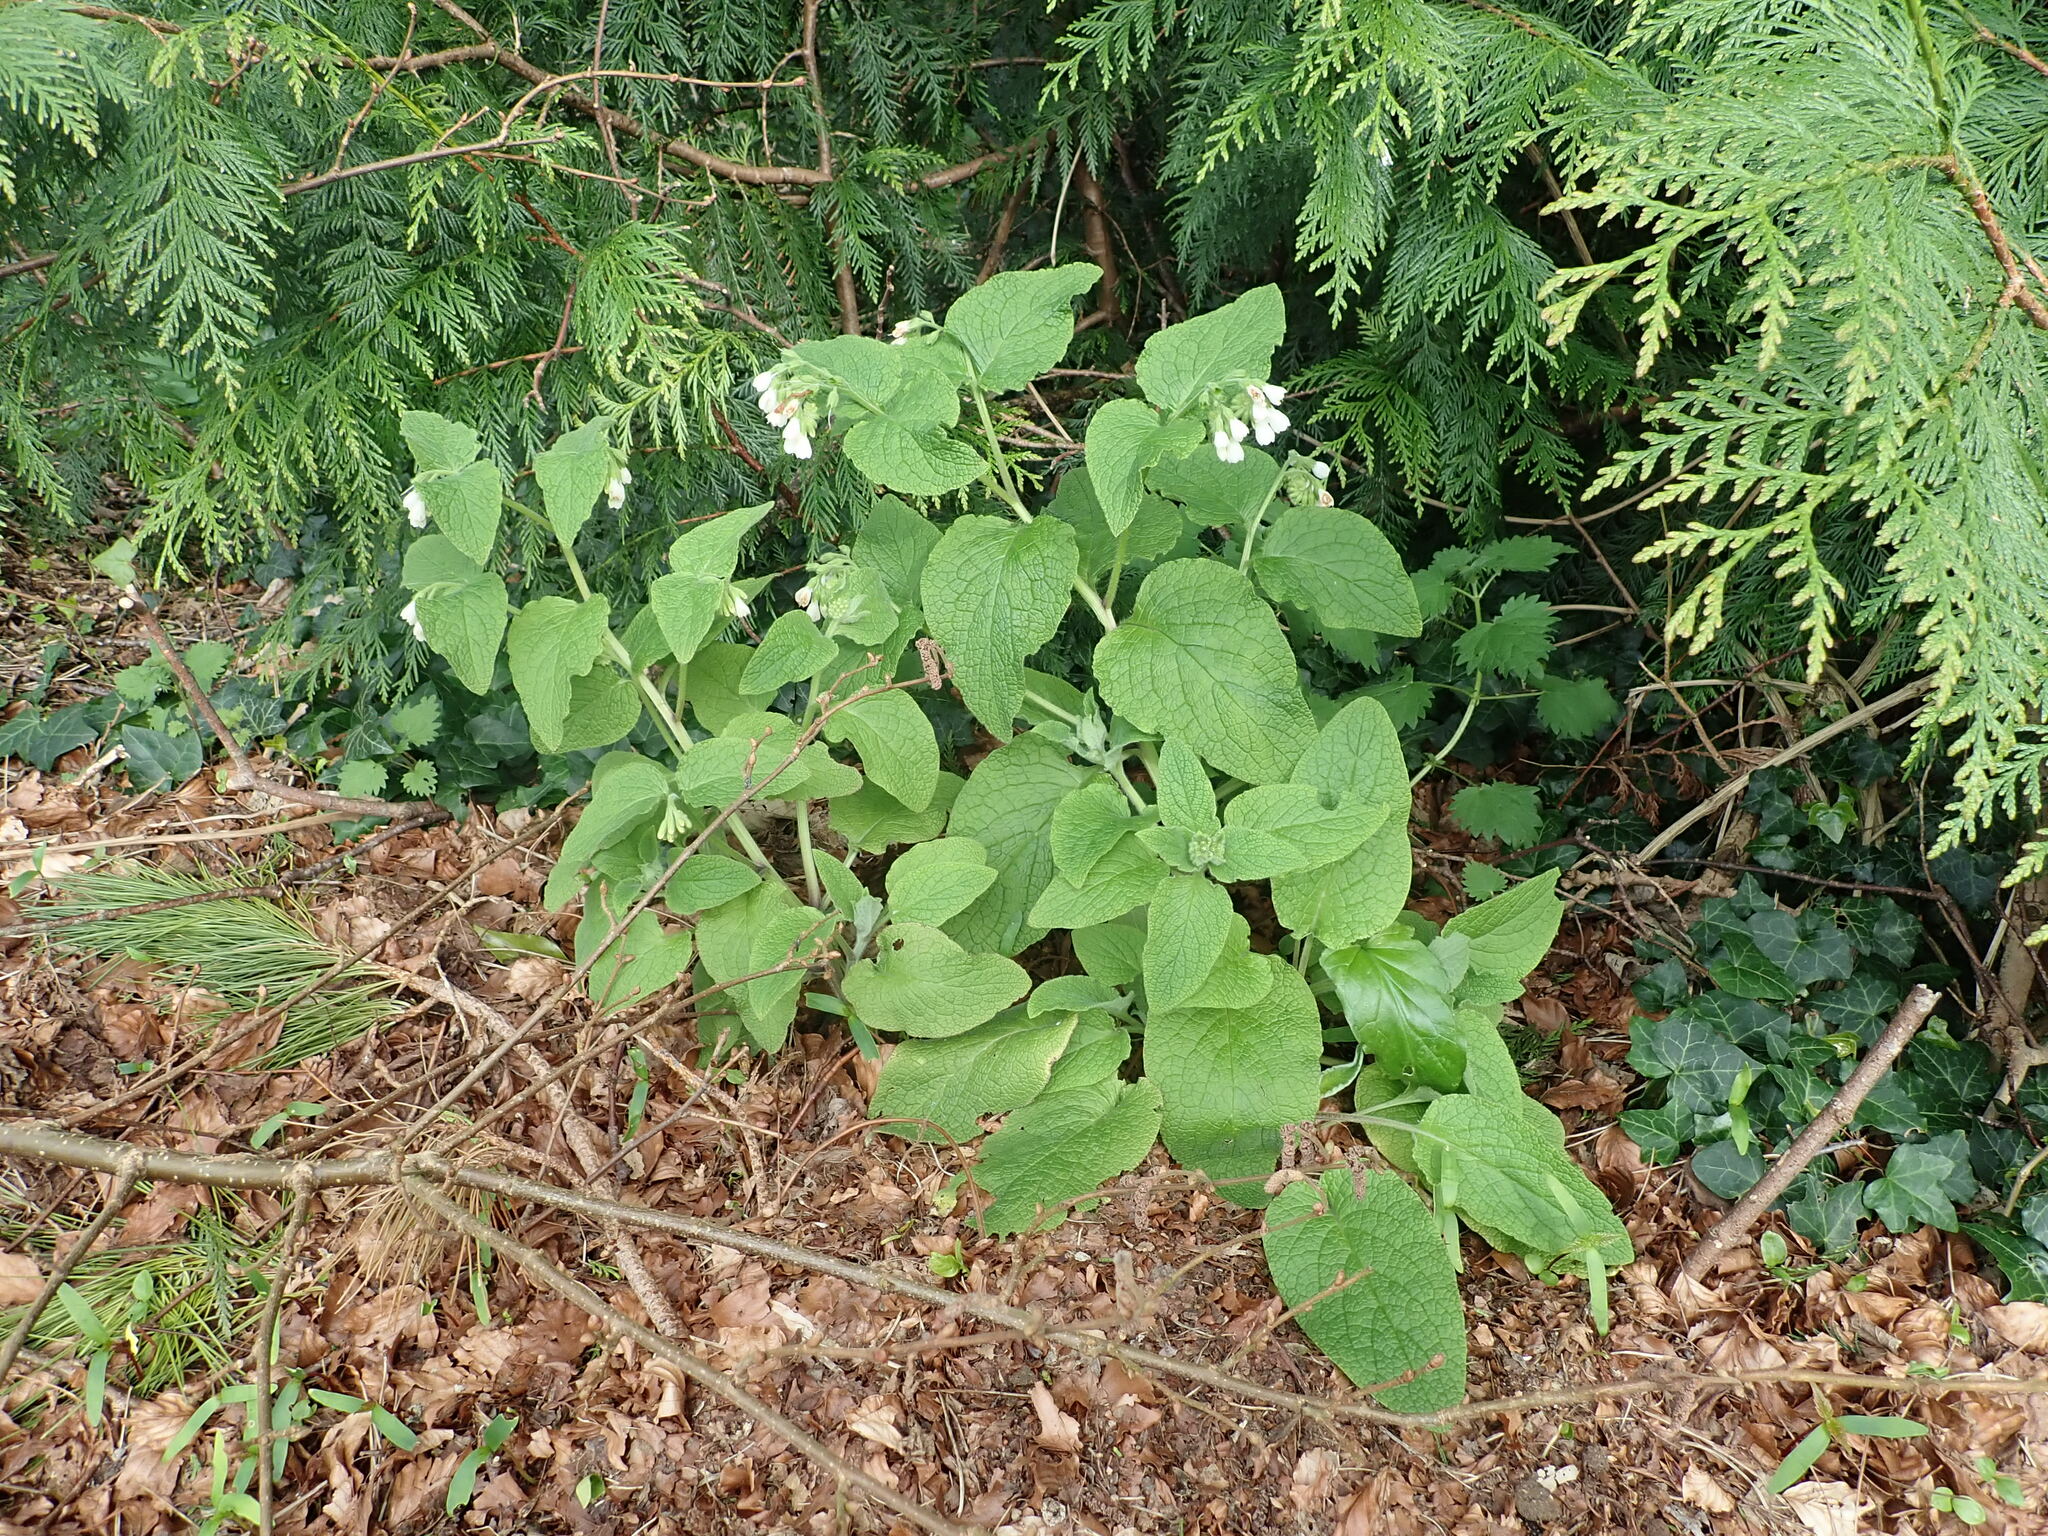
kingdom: Plantae
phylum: Tracheophyta
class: Magnoliopsida
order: Boraginales
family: Boraginaceae
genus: Symphytum
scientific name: Symphytum orientale
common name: White comfrey
